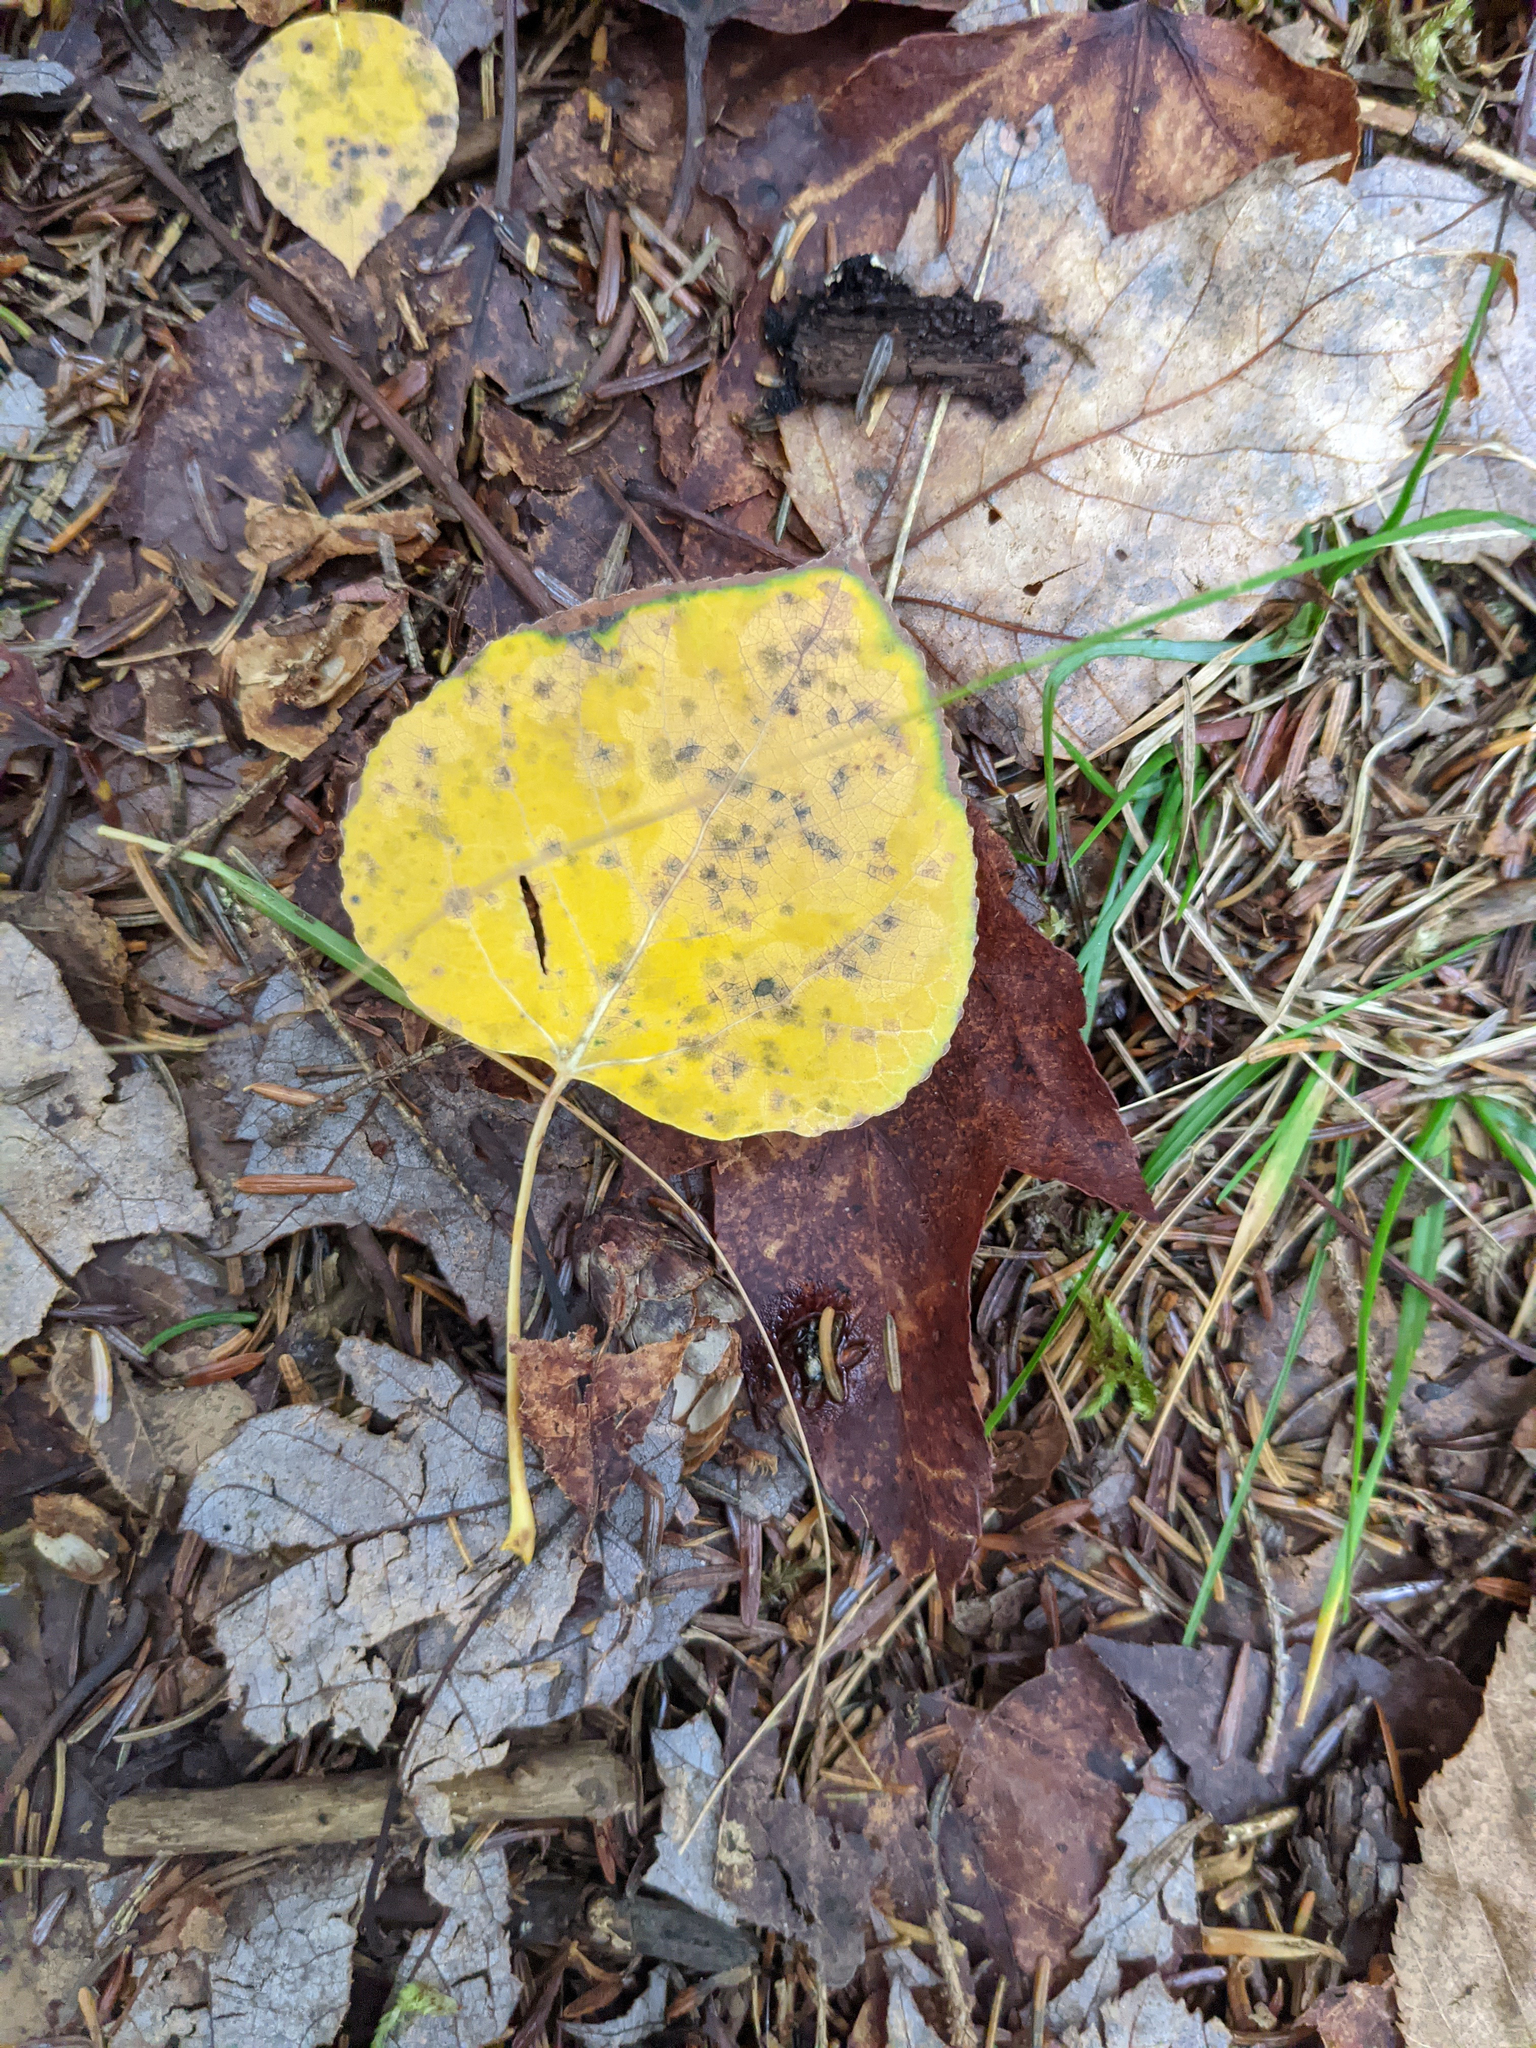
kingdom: Plantae
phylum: Tracheophyta
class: Magnoliopsida
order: Malpighiales
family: Salicaceae
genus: Populus
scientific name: Populus tremuloides
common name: Quaking aspen
